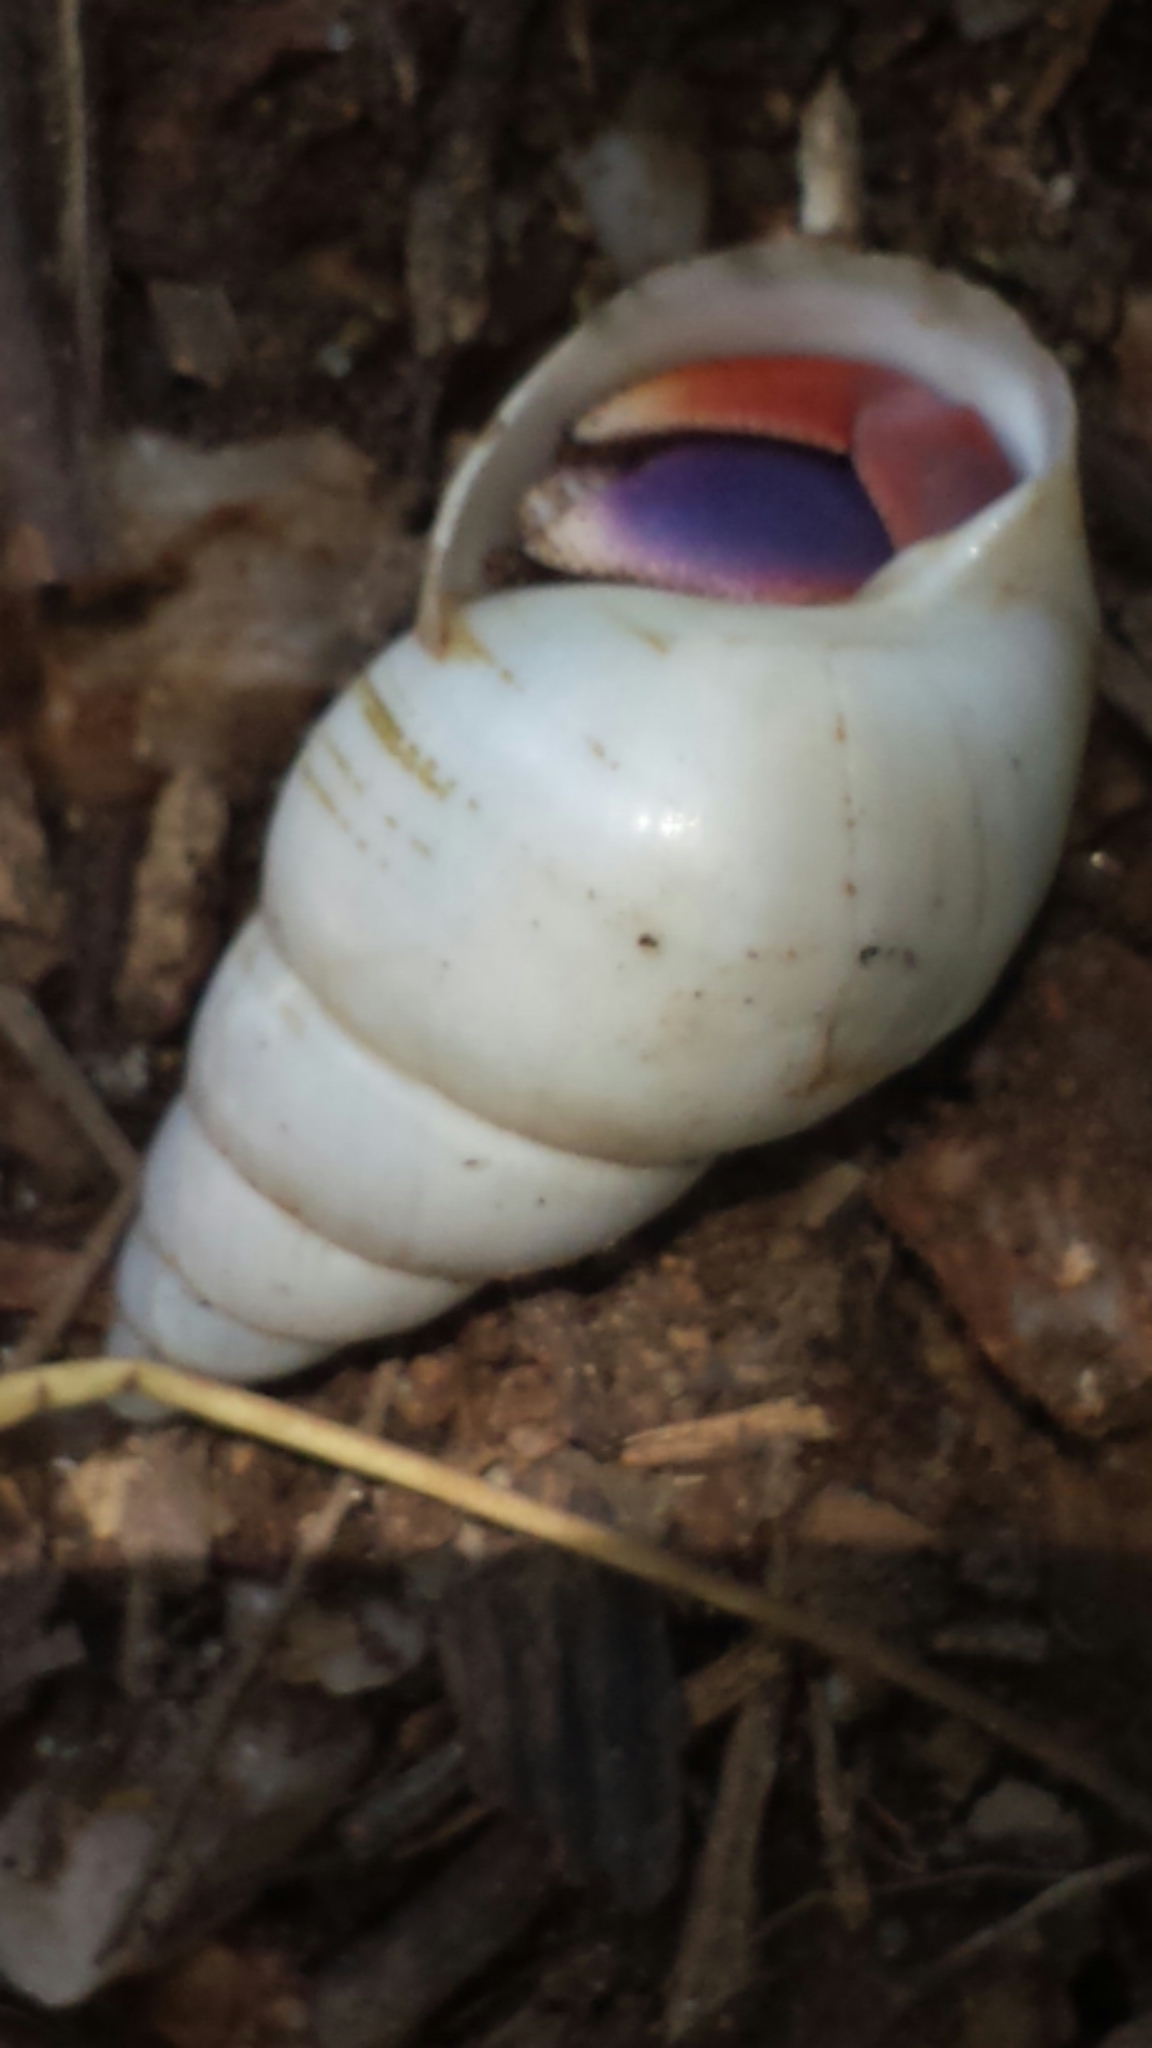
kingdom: Animalia
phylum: Mollusca
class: Gastropoda
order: Stylommatophora
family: Orthalicidae
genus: Liguus
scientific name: Liguus fasciatus
